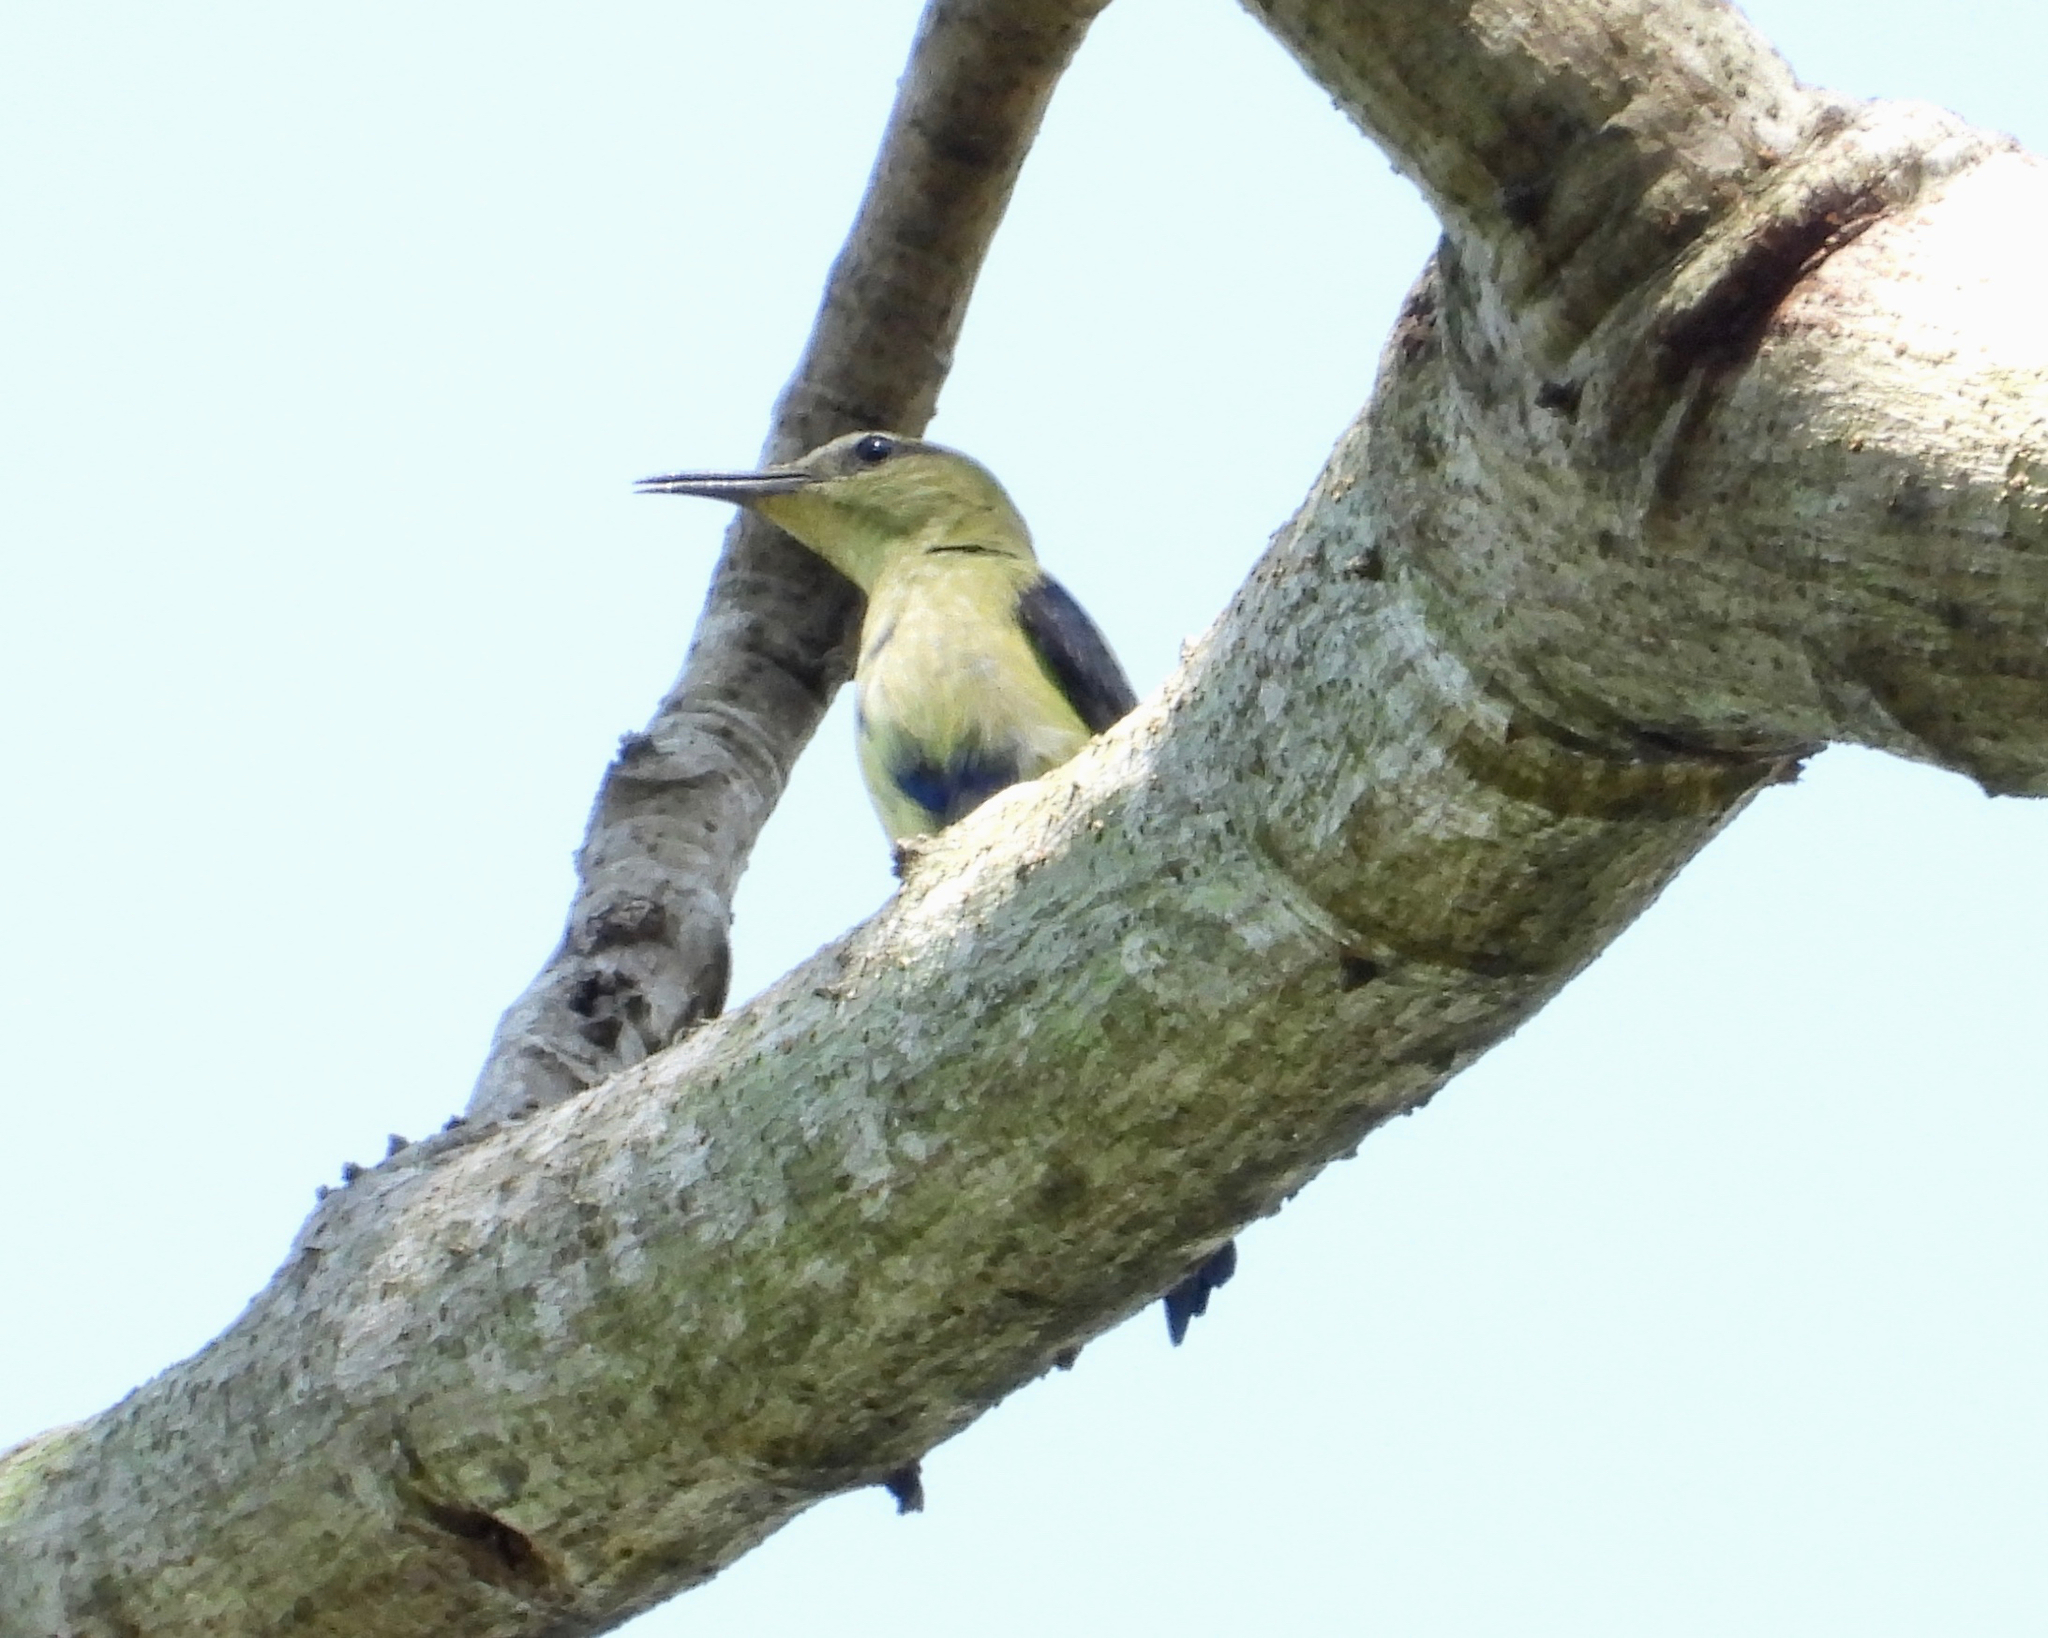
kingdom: Animalia
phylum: Chordata
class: Aves
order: Passeriformes
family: Thraupidae
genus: Cyanerpes
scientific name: Cyanerpes cyaneus
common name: Red-legged honeycreeper
